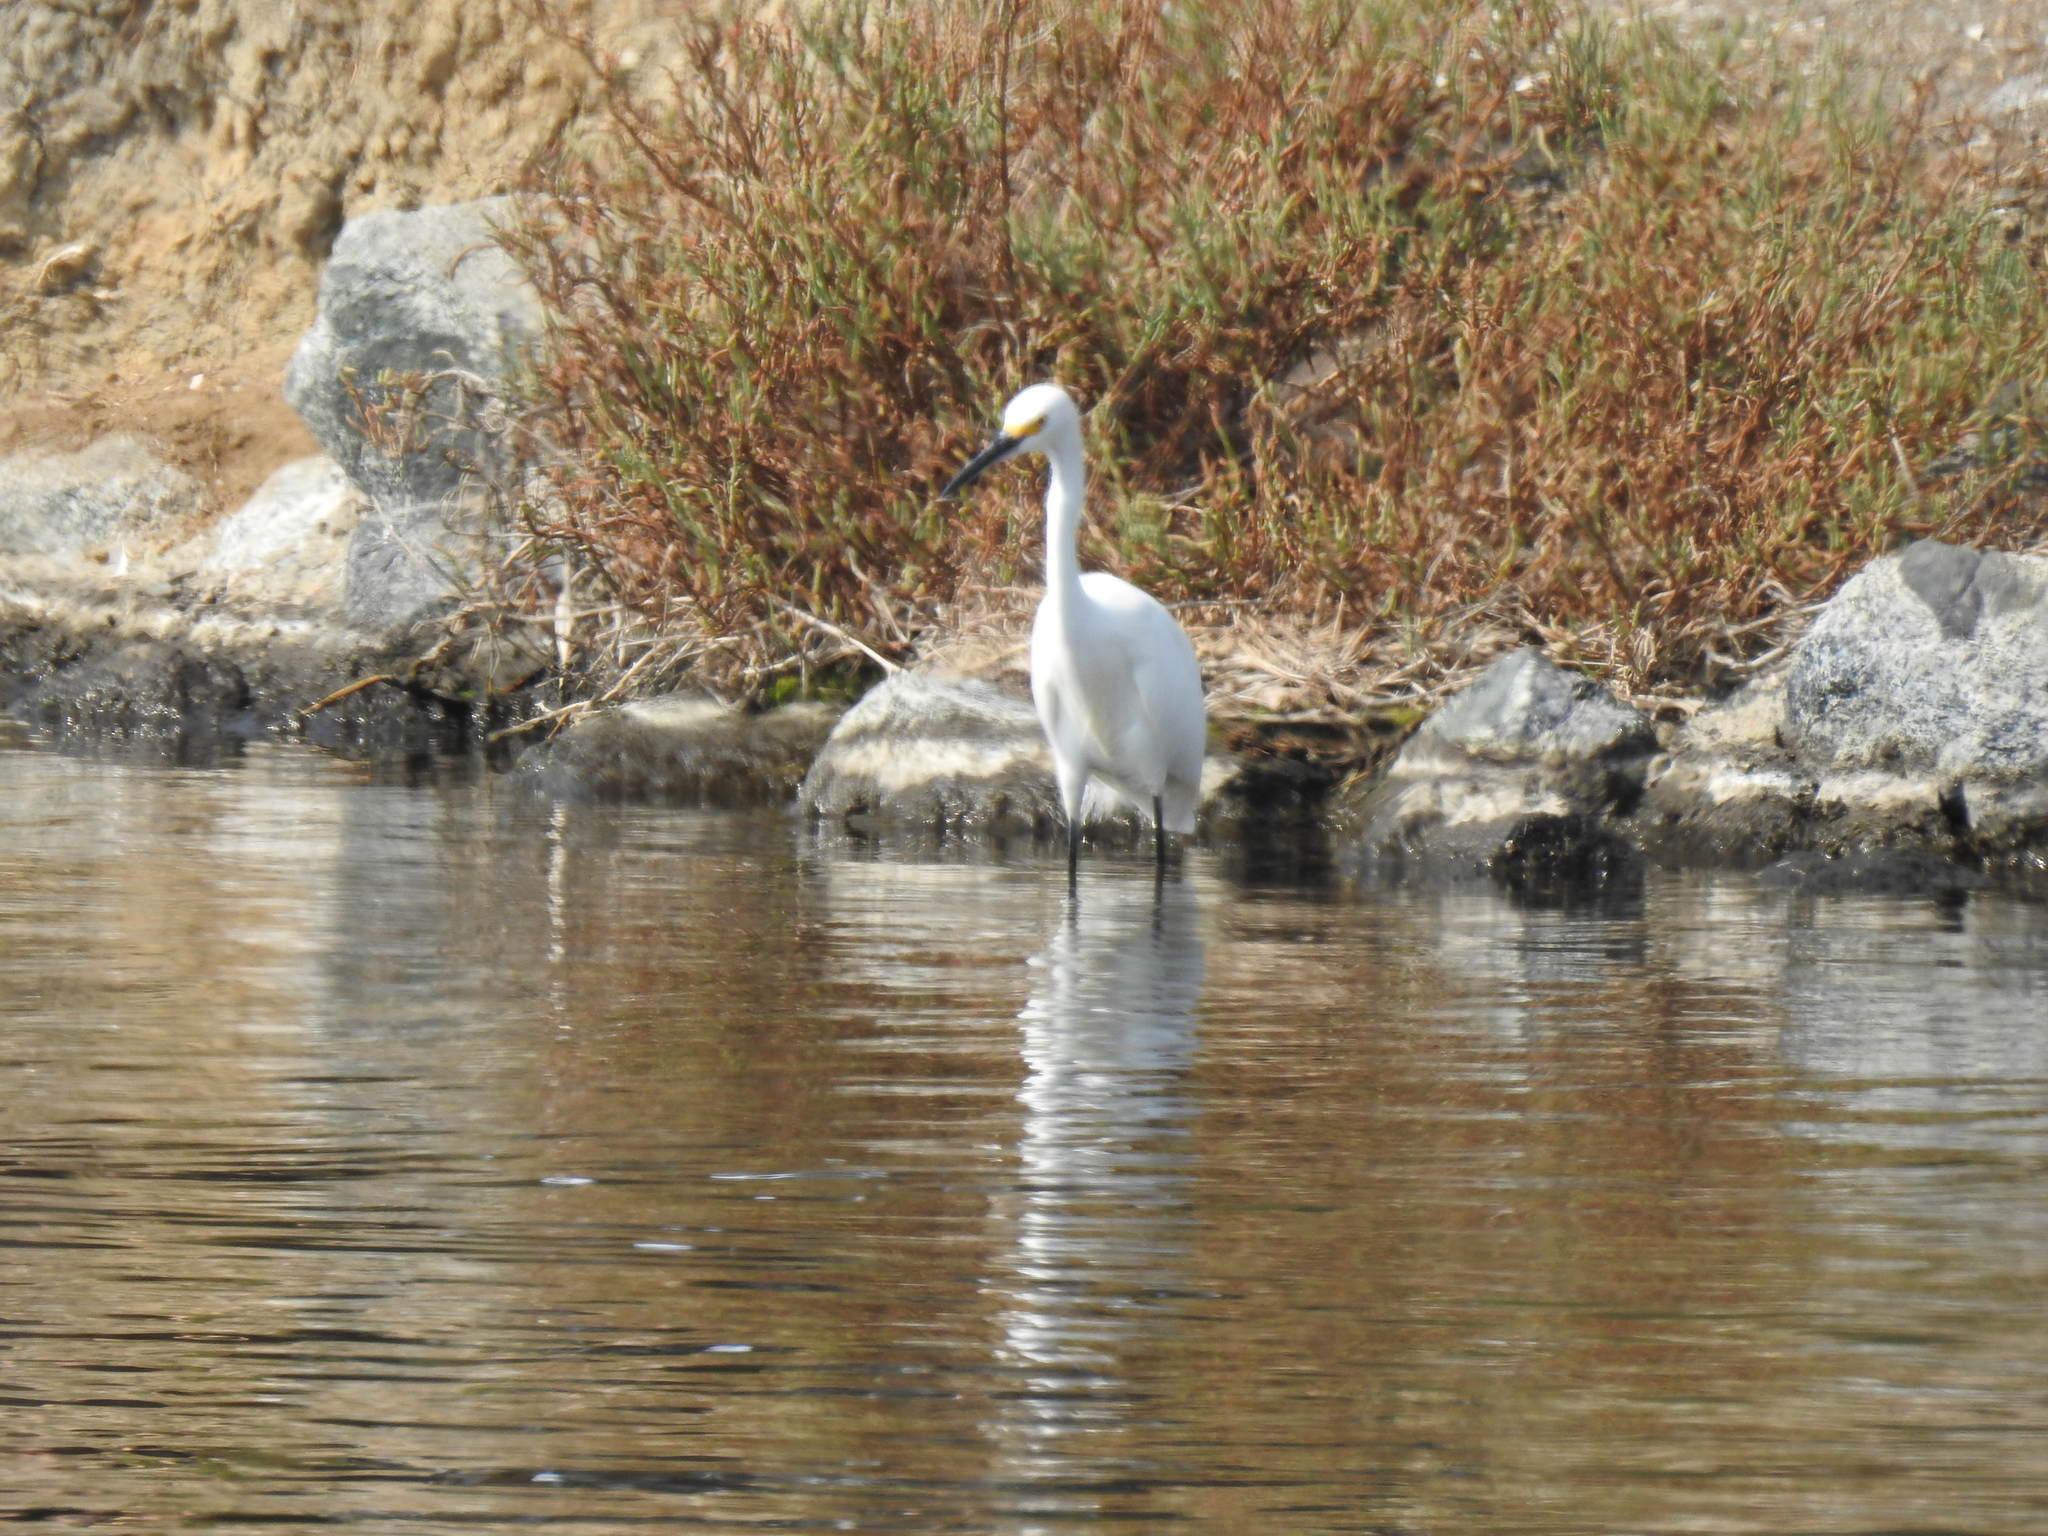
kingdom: Animalia
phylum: Chordata
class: Aves
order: Pelecaniformes
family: Ardeidae
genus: Egretta
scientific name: Egretta thula
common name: Snowy egret
